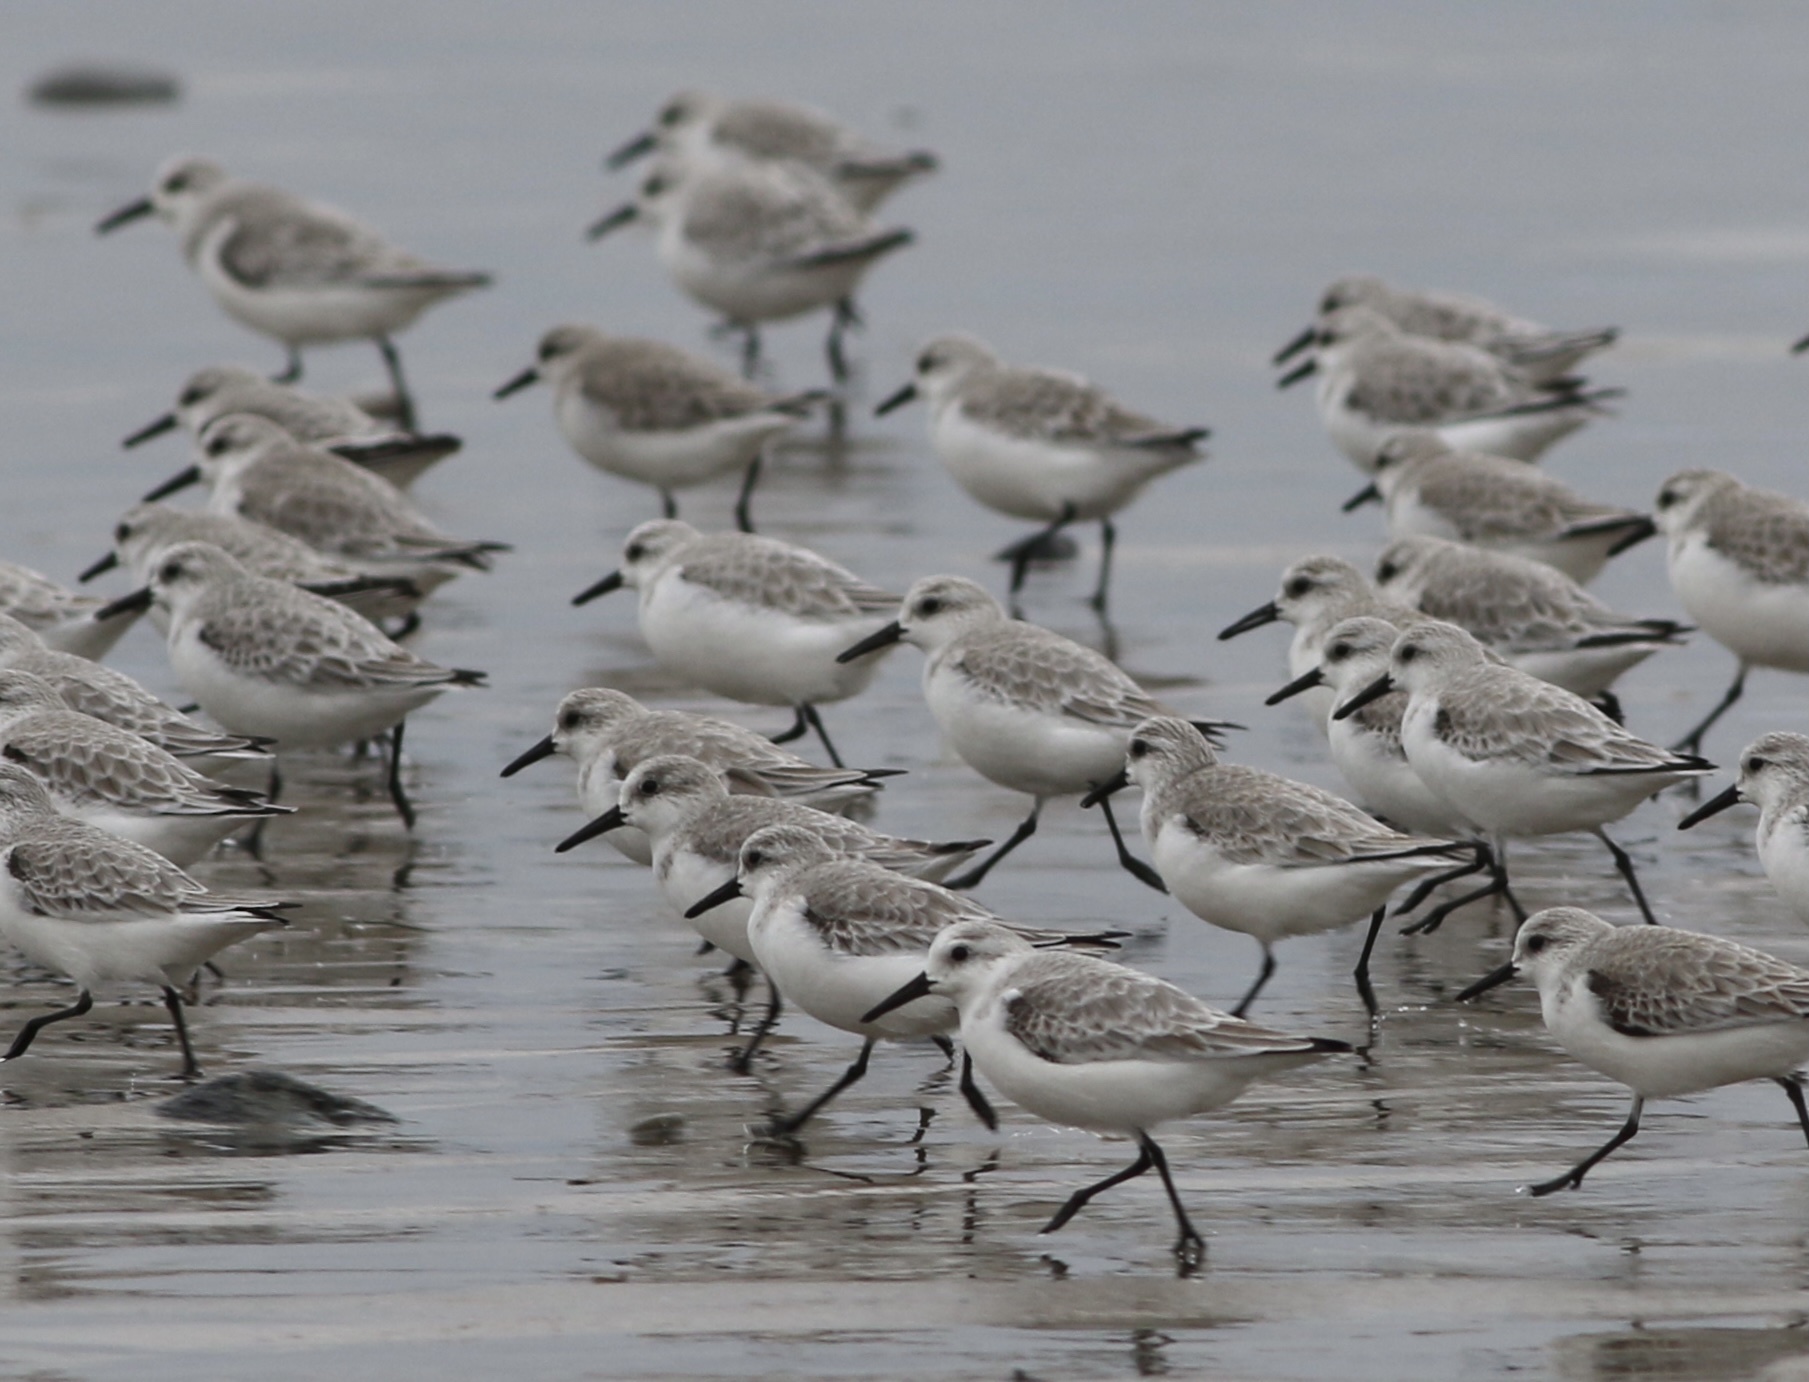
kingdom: Animalia
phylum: Chordata
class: Aves
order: Charadriiformes
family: Scolopacidae
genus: Calidris
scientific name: Calidris alba
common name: Sanderling
